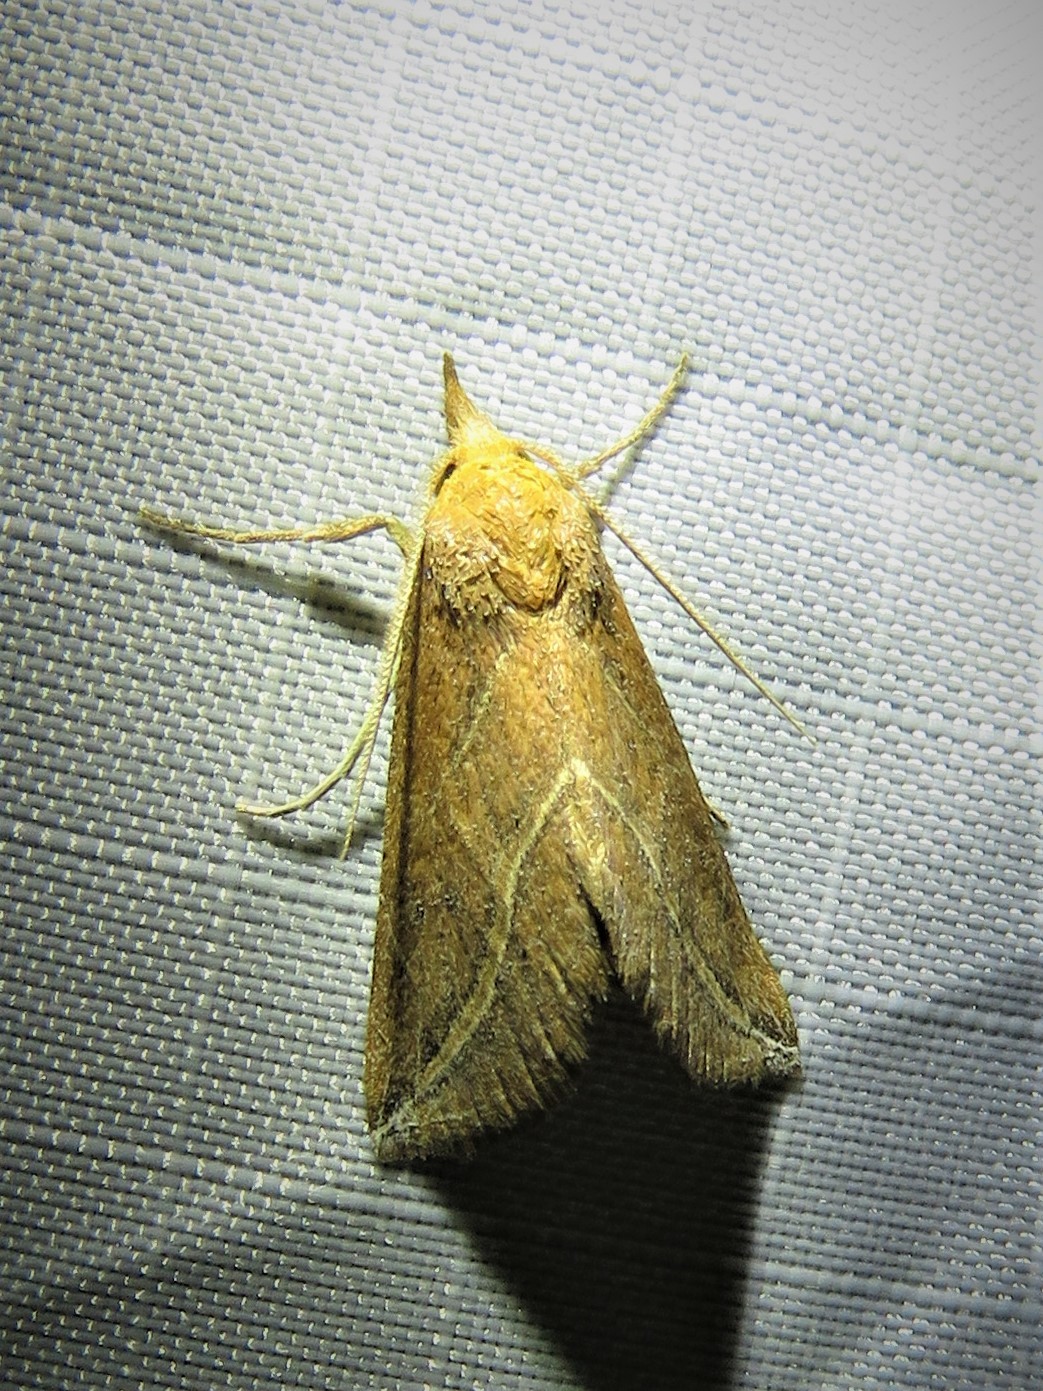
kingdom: Animalia
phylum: Arthropoda
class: Insecta
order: Lepidoptera
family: Erebidae
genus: Phyprosopus
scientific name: Phyprosopus callitrichoides
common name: Curved-lined owlet
